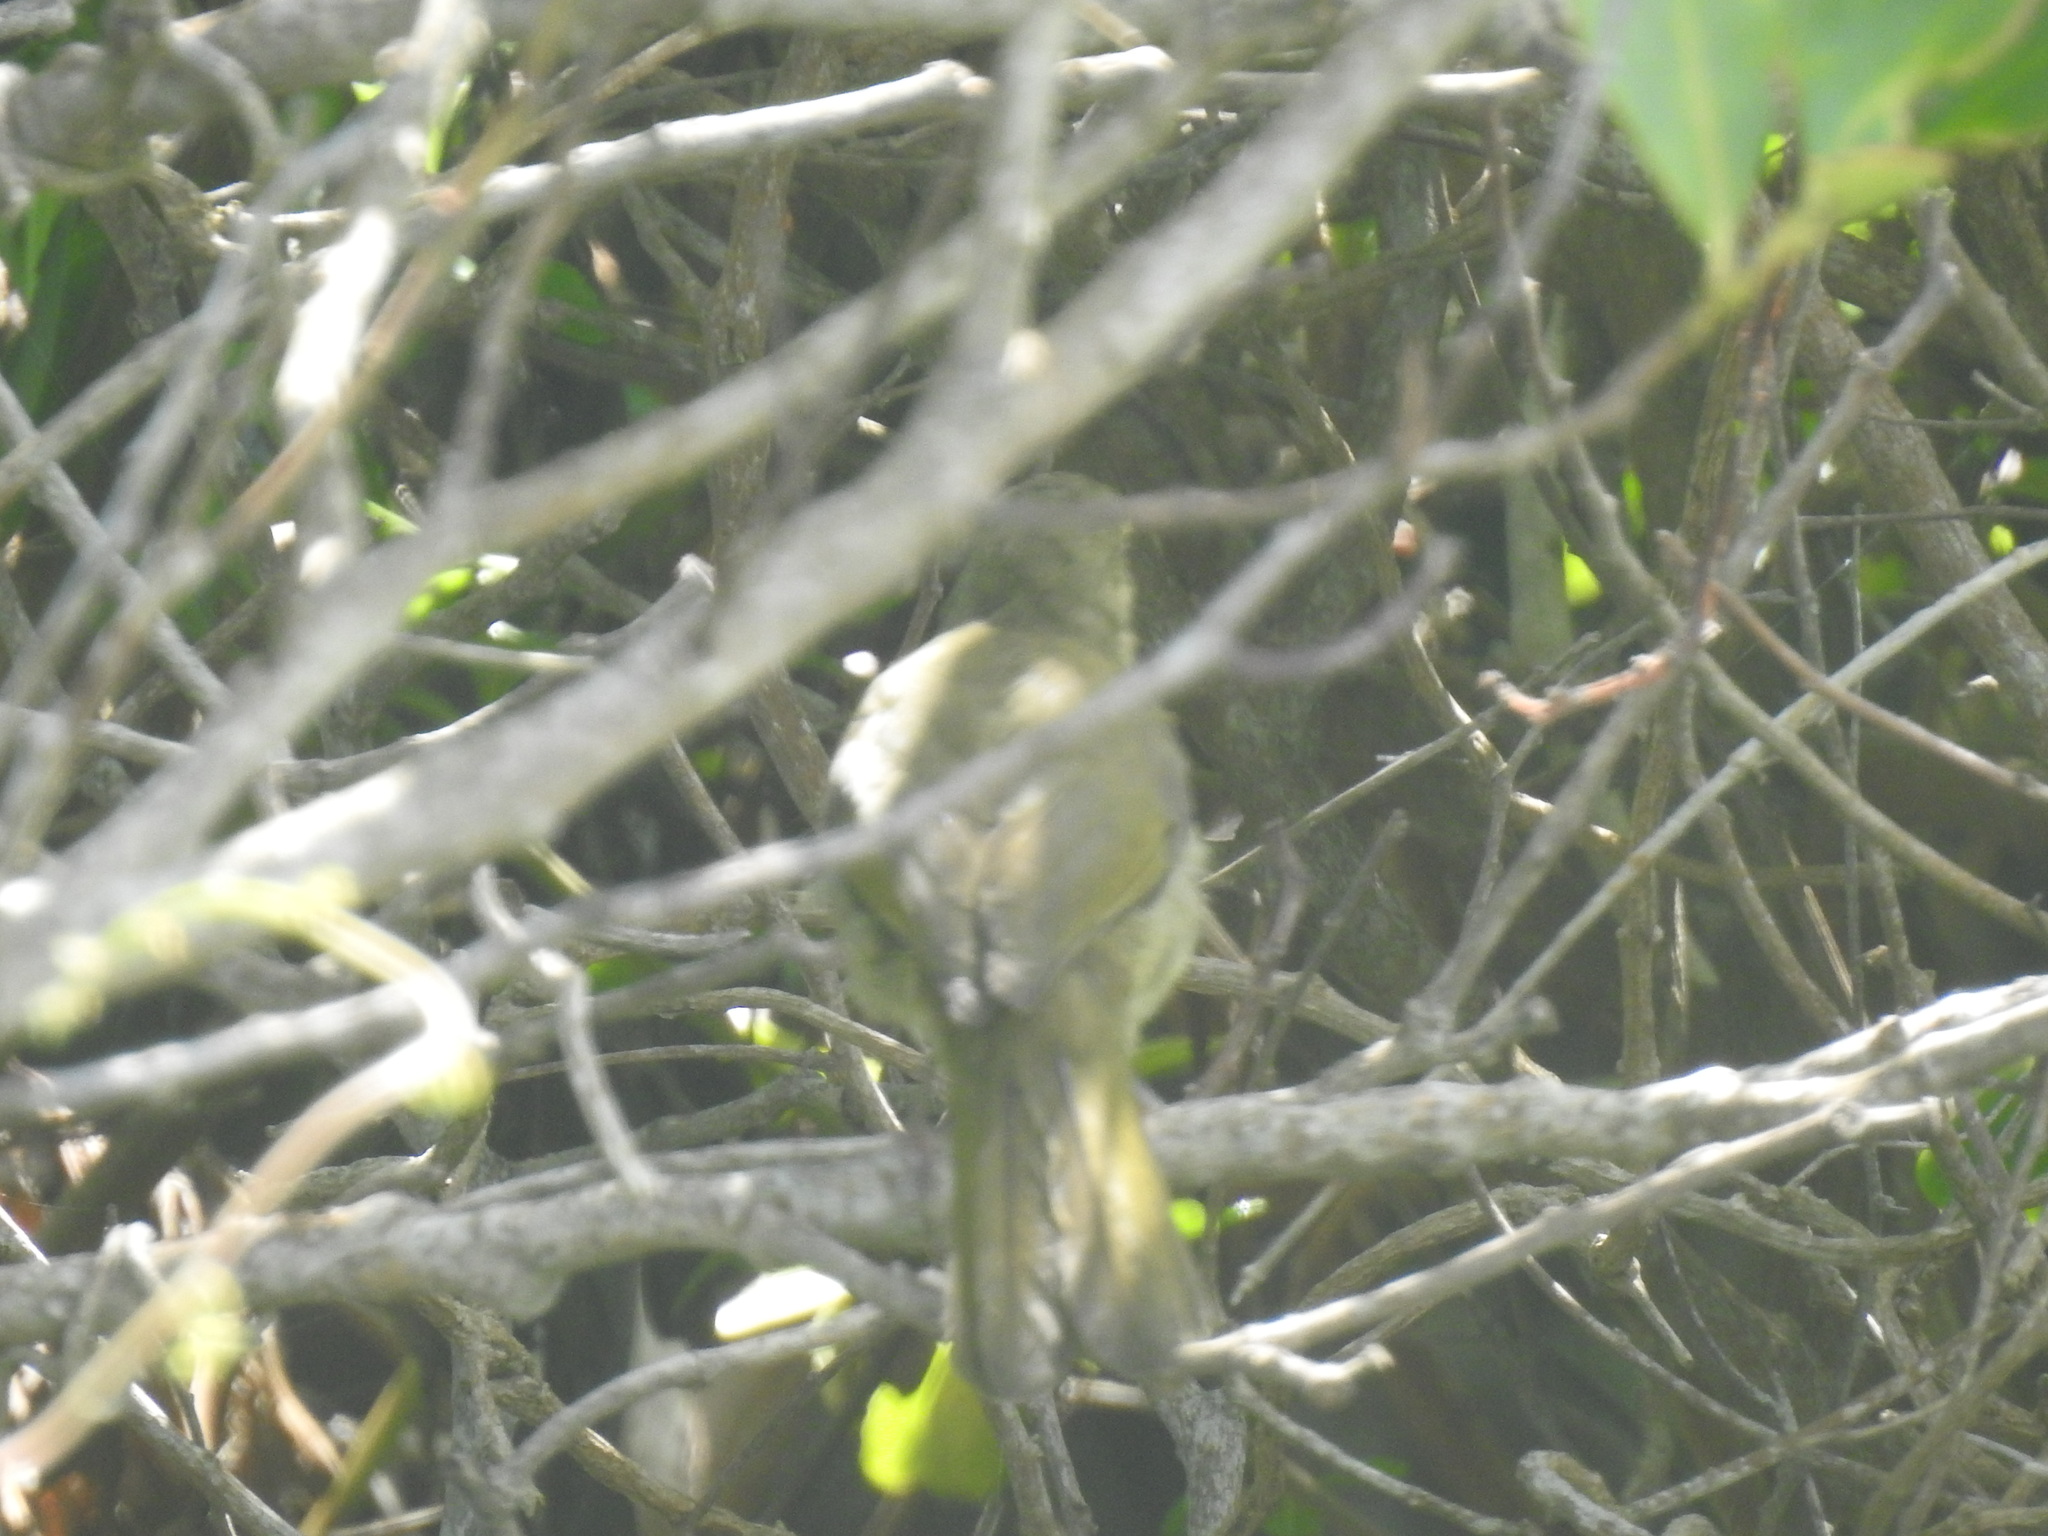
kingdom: Animalia
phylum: Chordata
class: Aves
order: Passeriformes
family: Pycnonotidae
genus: Andropadus
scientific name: Andropadus importunus
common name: Sombre greenbul
